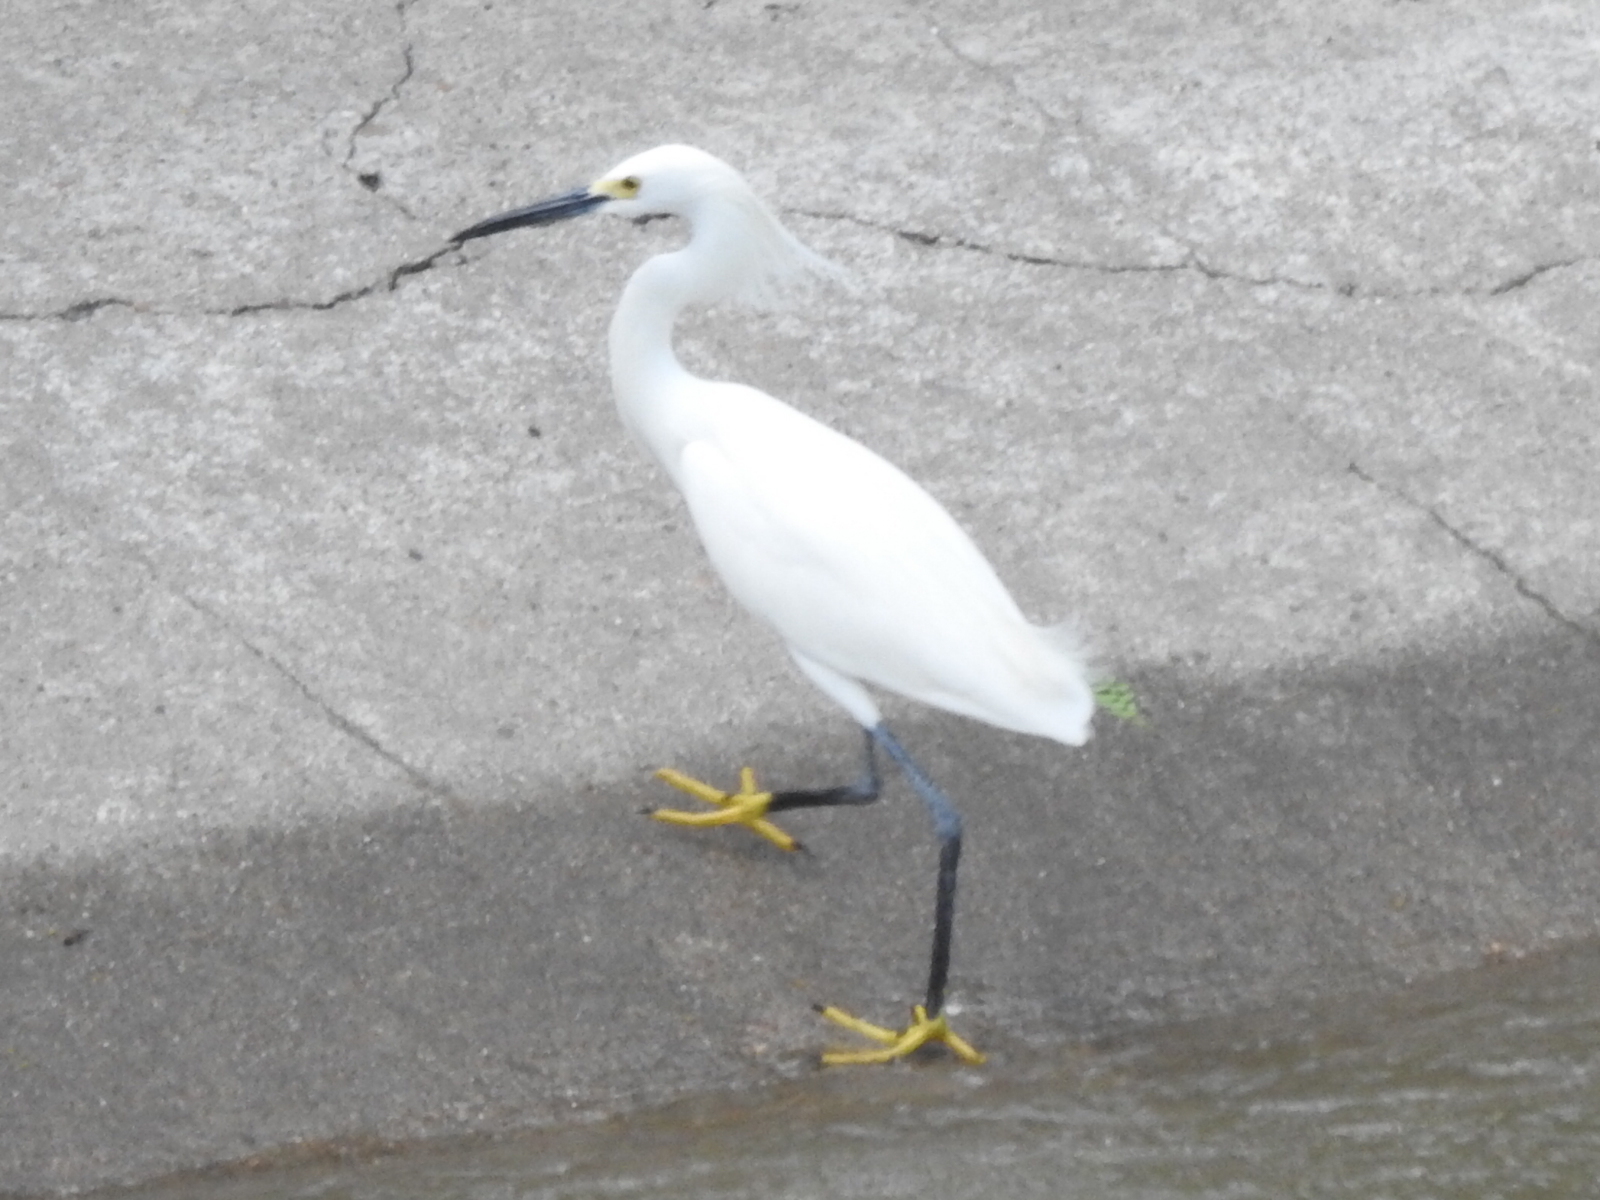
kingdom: Animalia
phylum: Chordata
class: Aves
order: Pelecaniformes
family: Ardeidae
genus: Egretta
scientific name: Egretta thula
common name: Snowy egret
